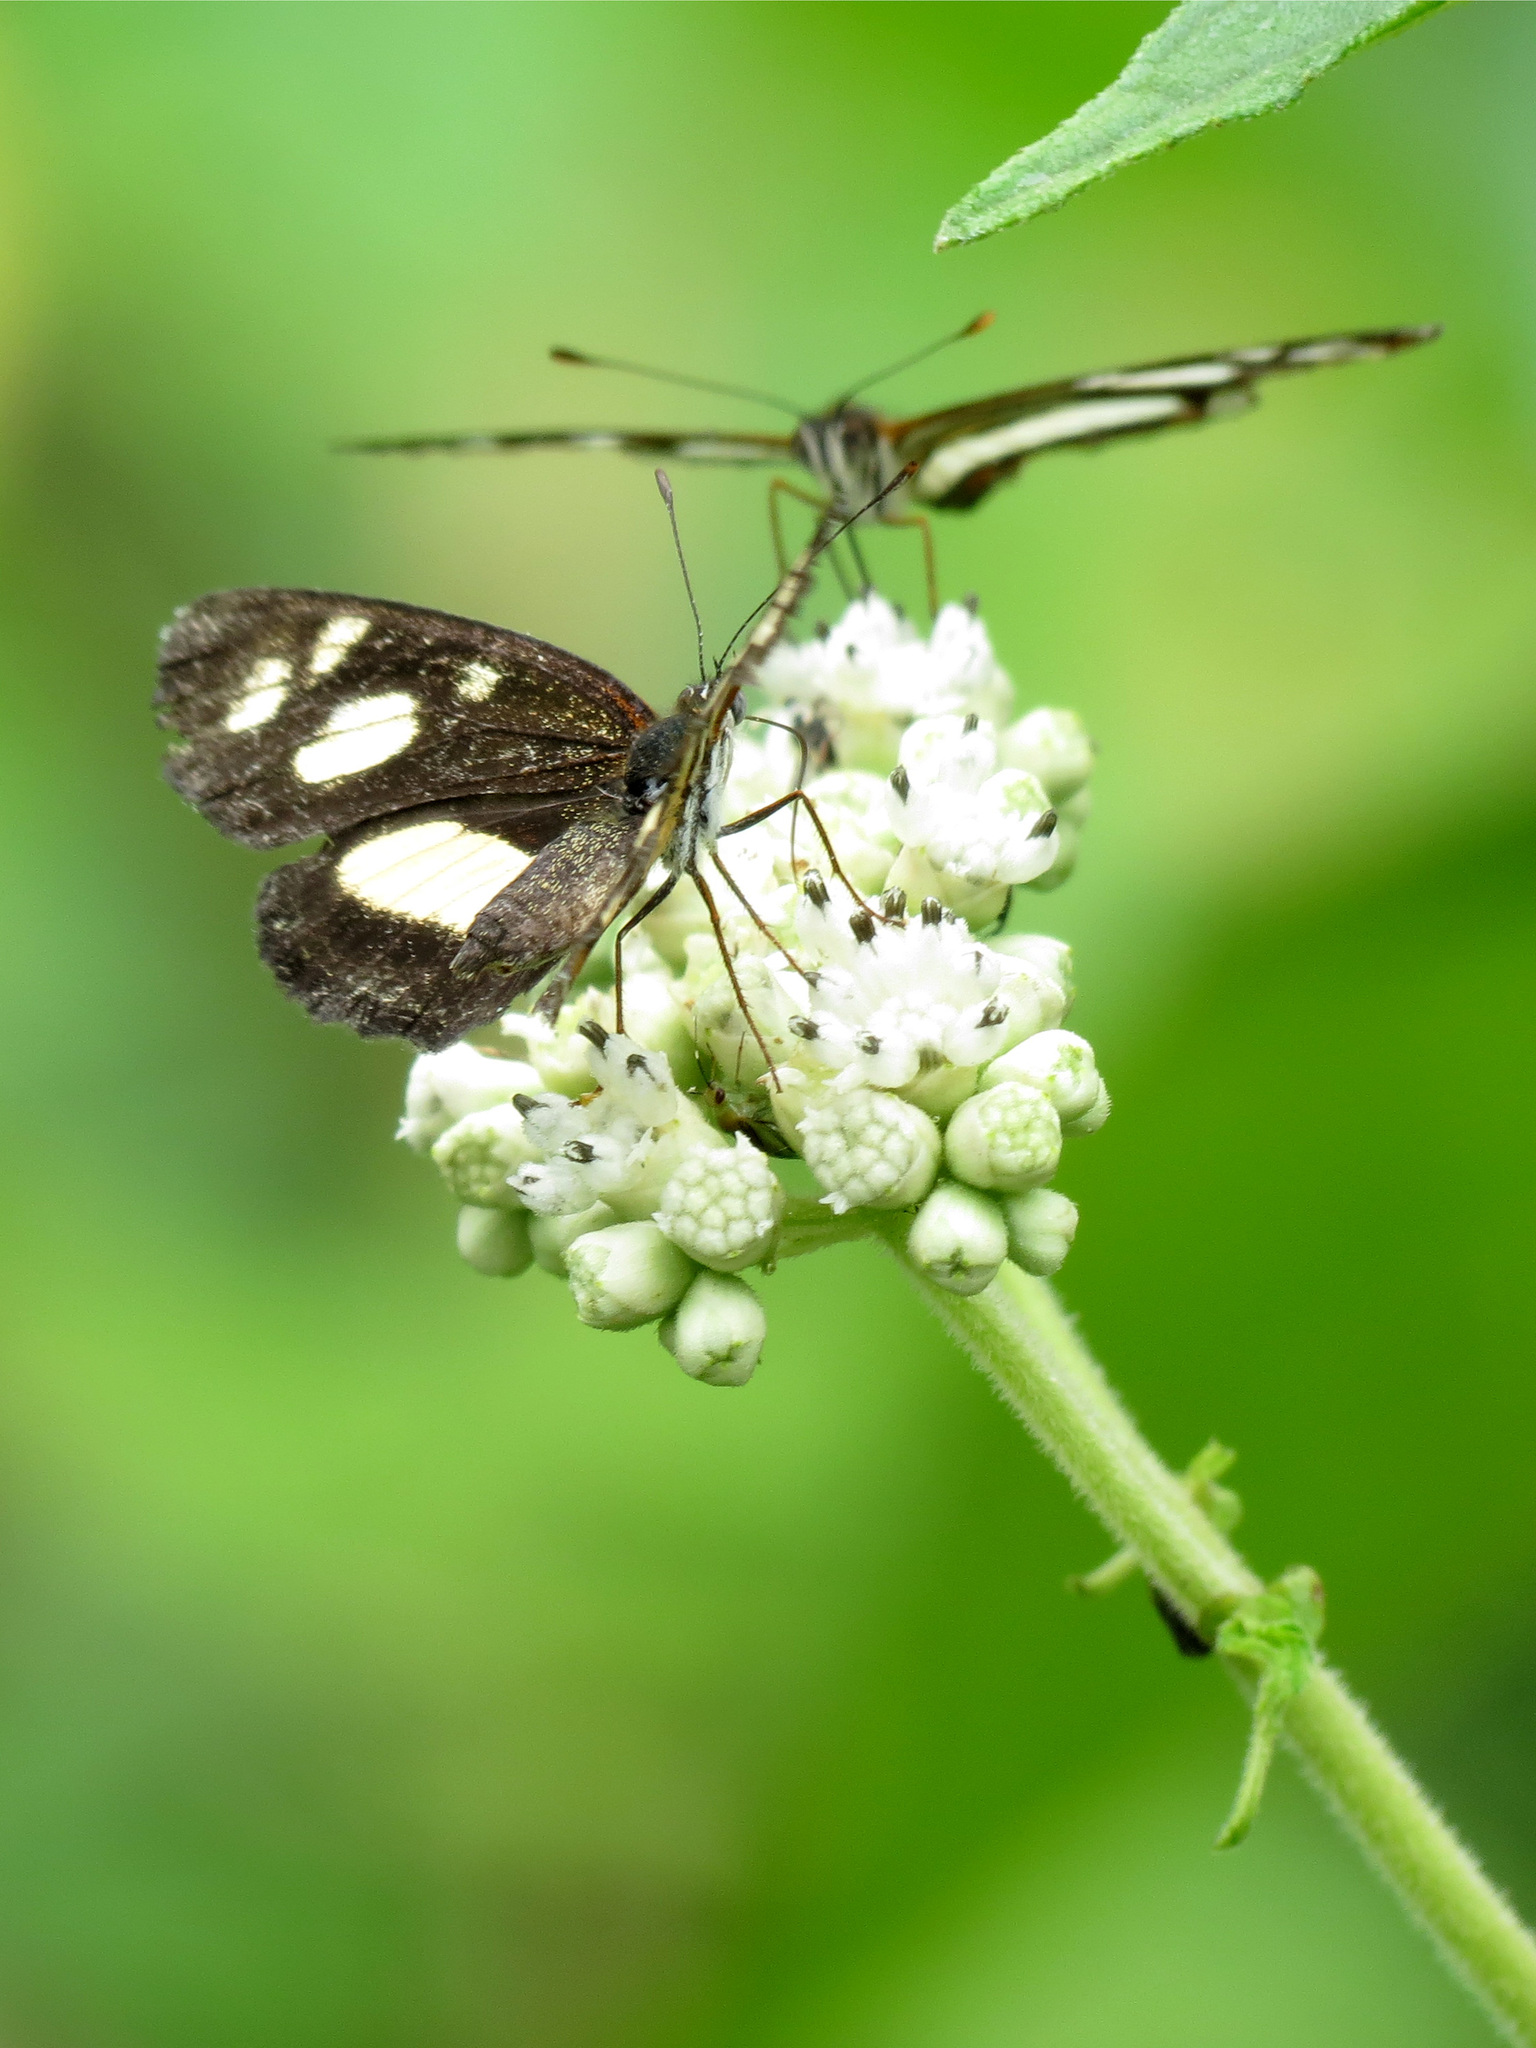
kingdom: Animalia
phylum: Arthropoda
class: Insecta
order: Lepidoptera
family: Nymphalidae
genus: Eresia
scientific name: Eresia clio
